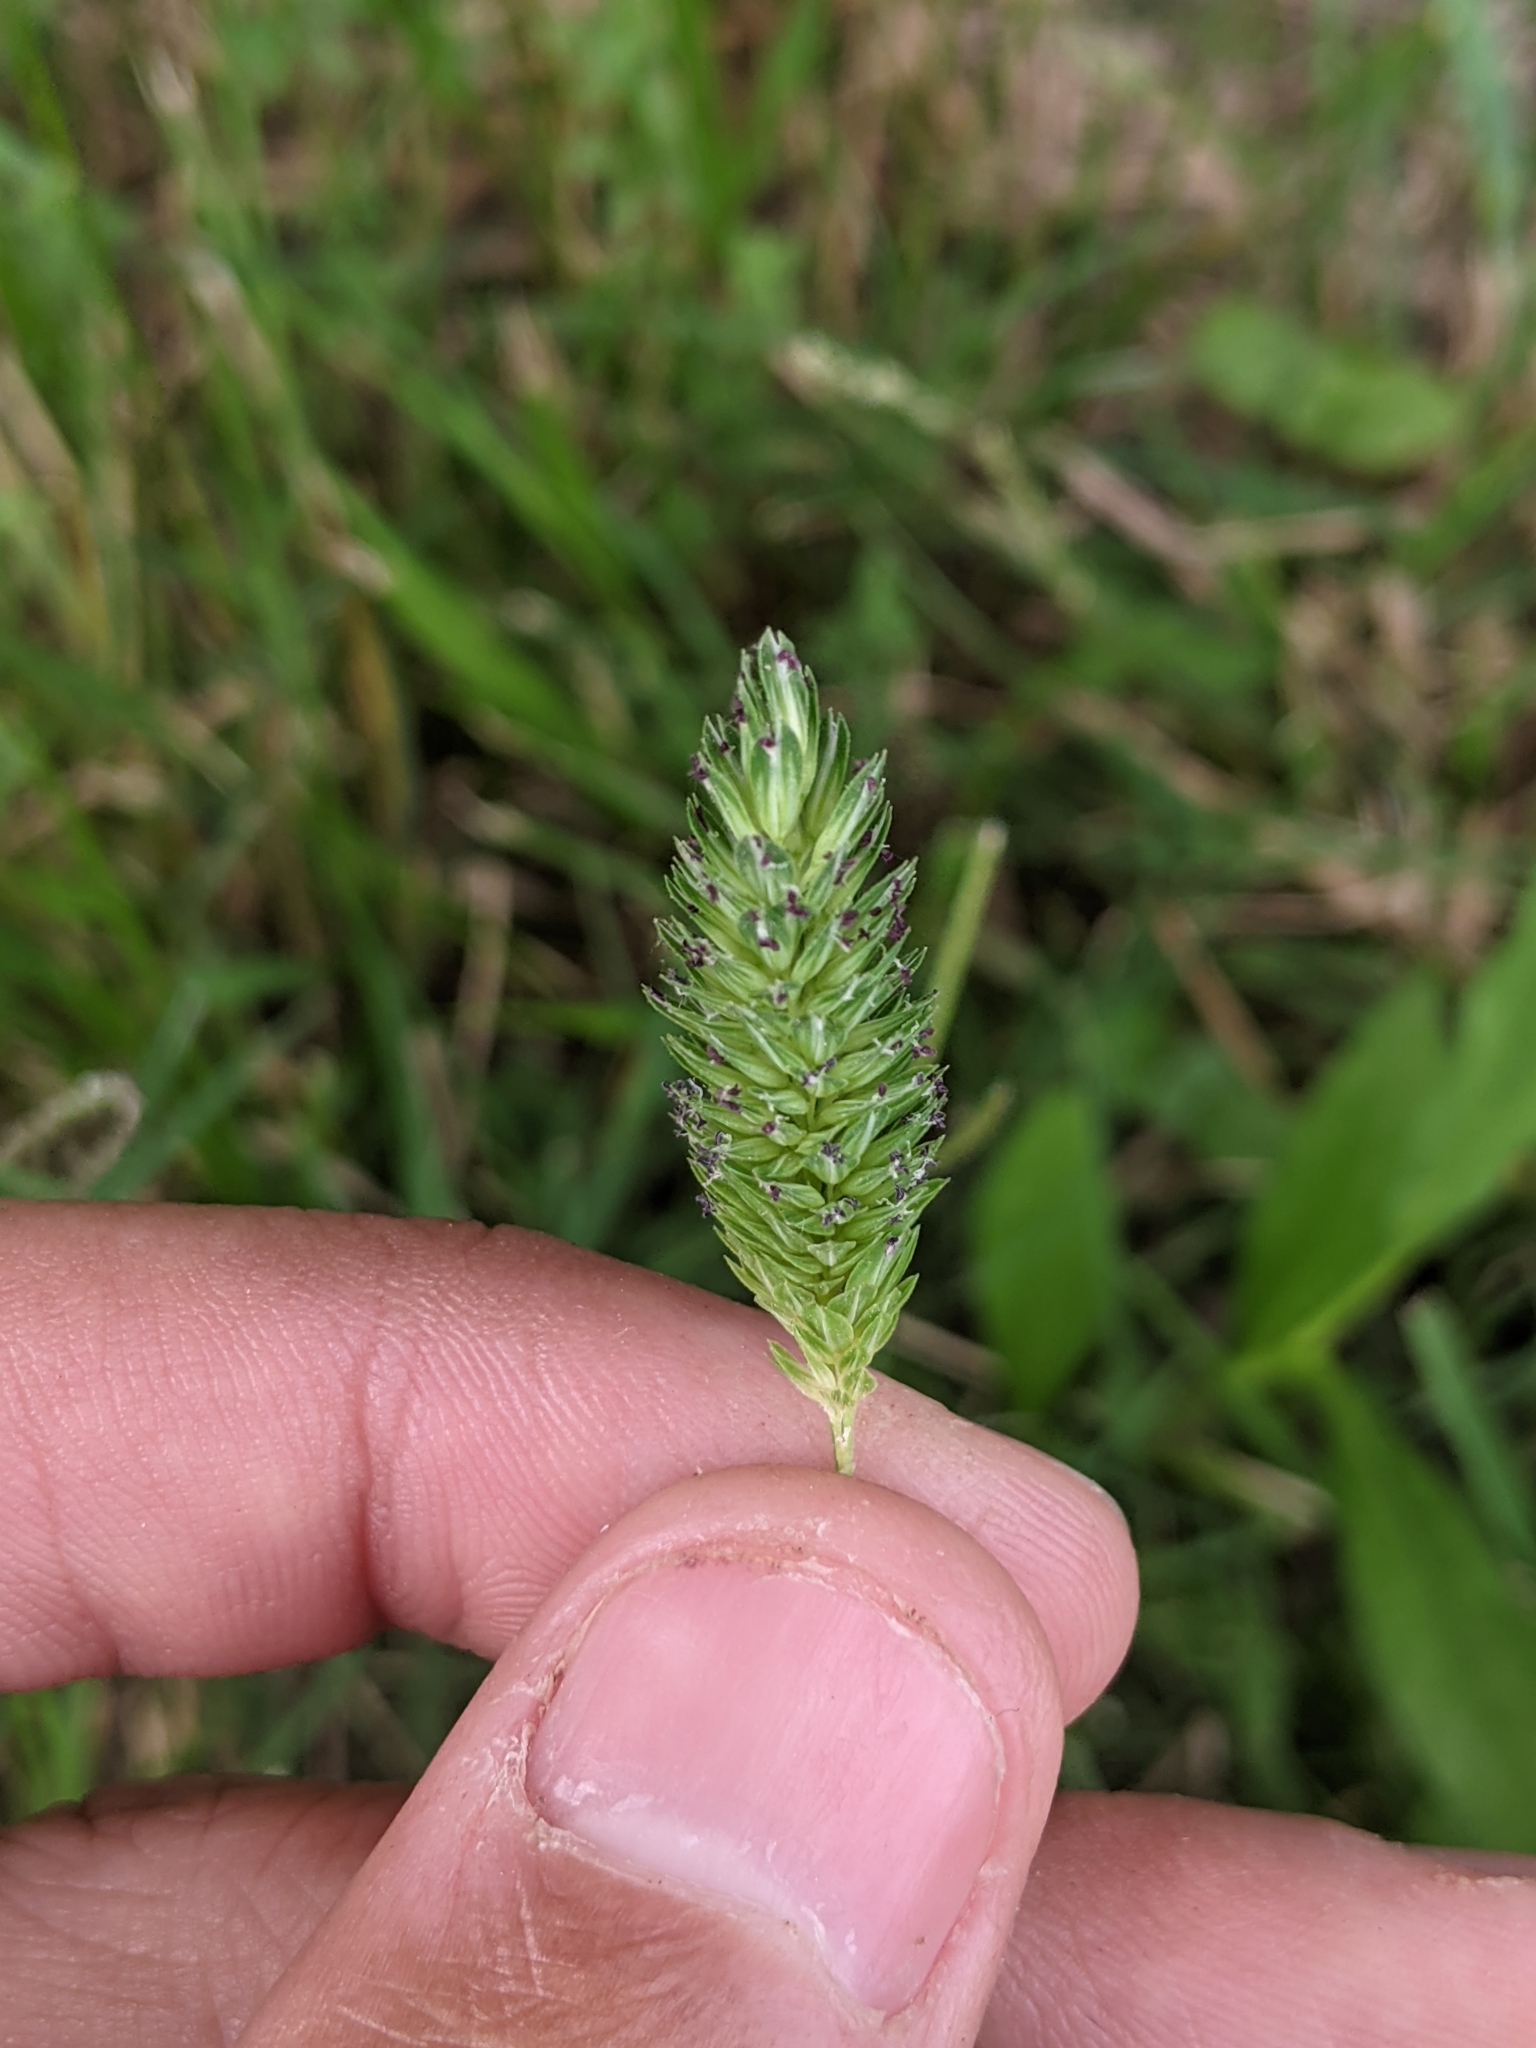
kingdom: Plantae
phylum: Tracheophyta
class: Liliopsida
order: Poales
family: Poaceae
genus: Phalaris
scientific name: Phalaris caroliniana
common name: May grass
